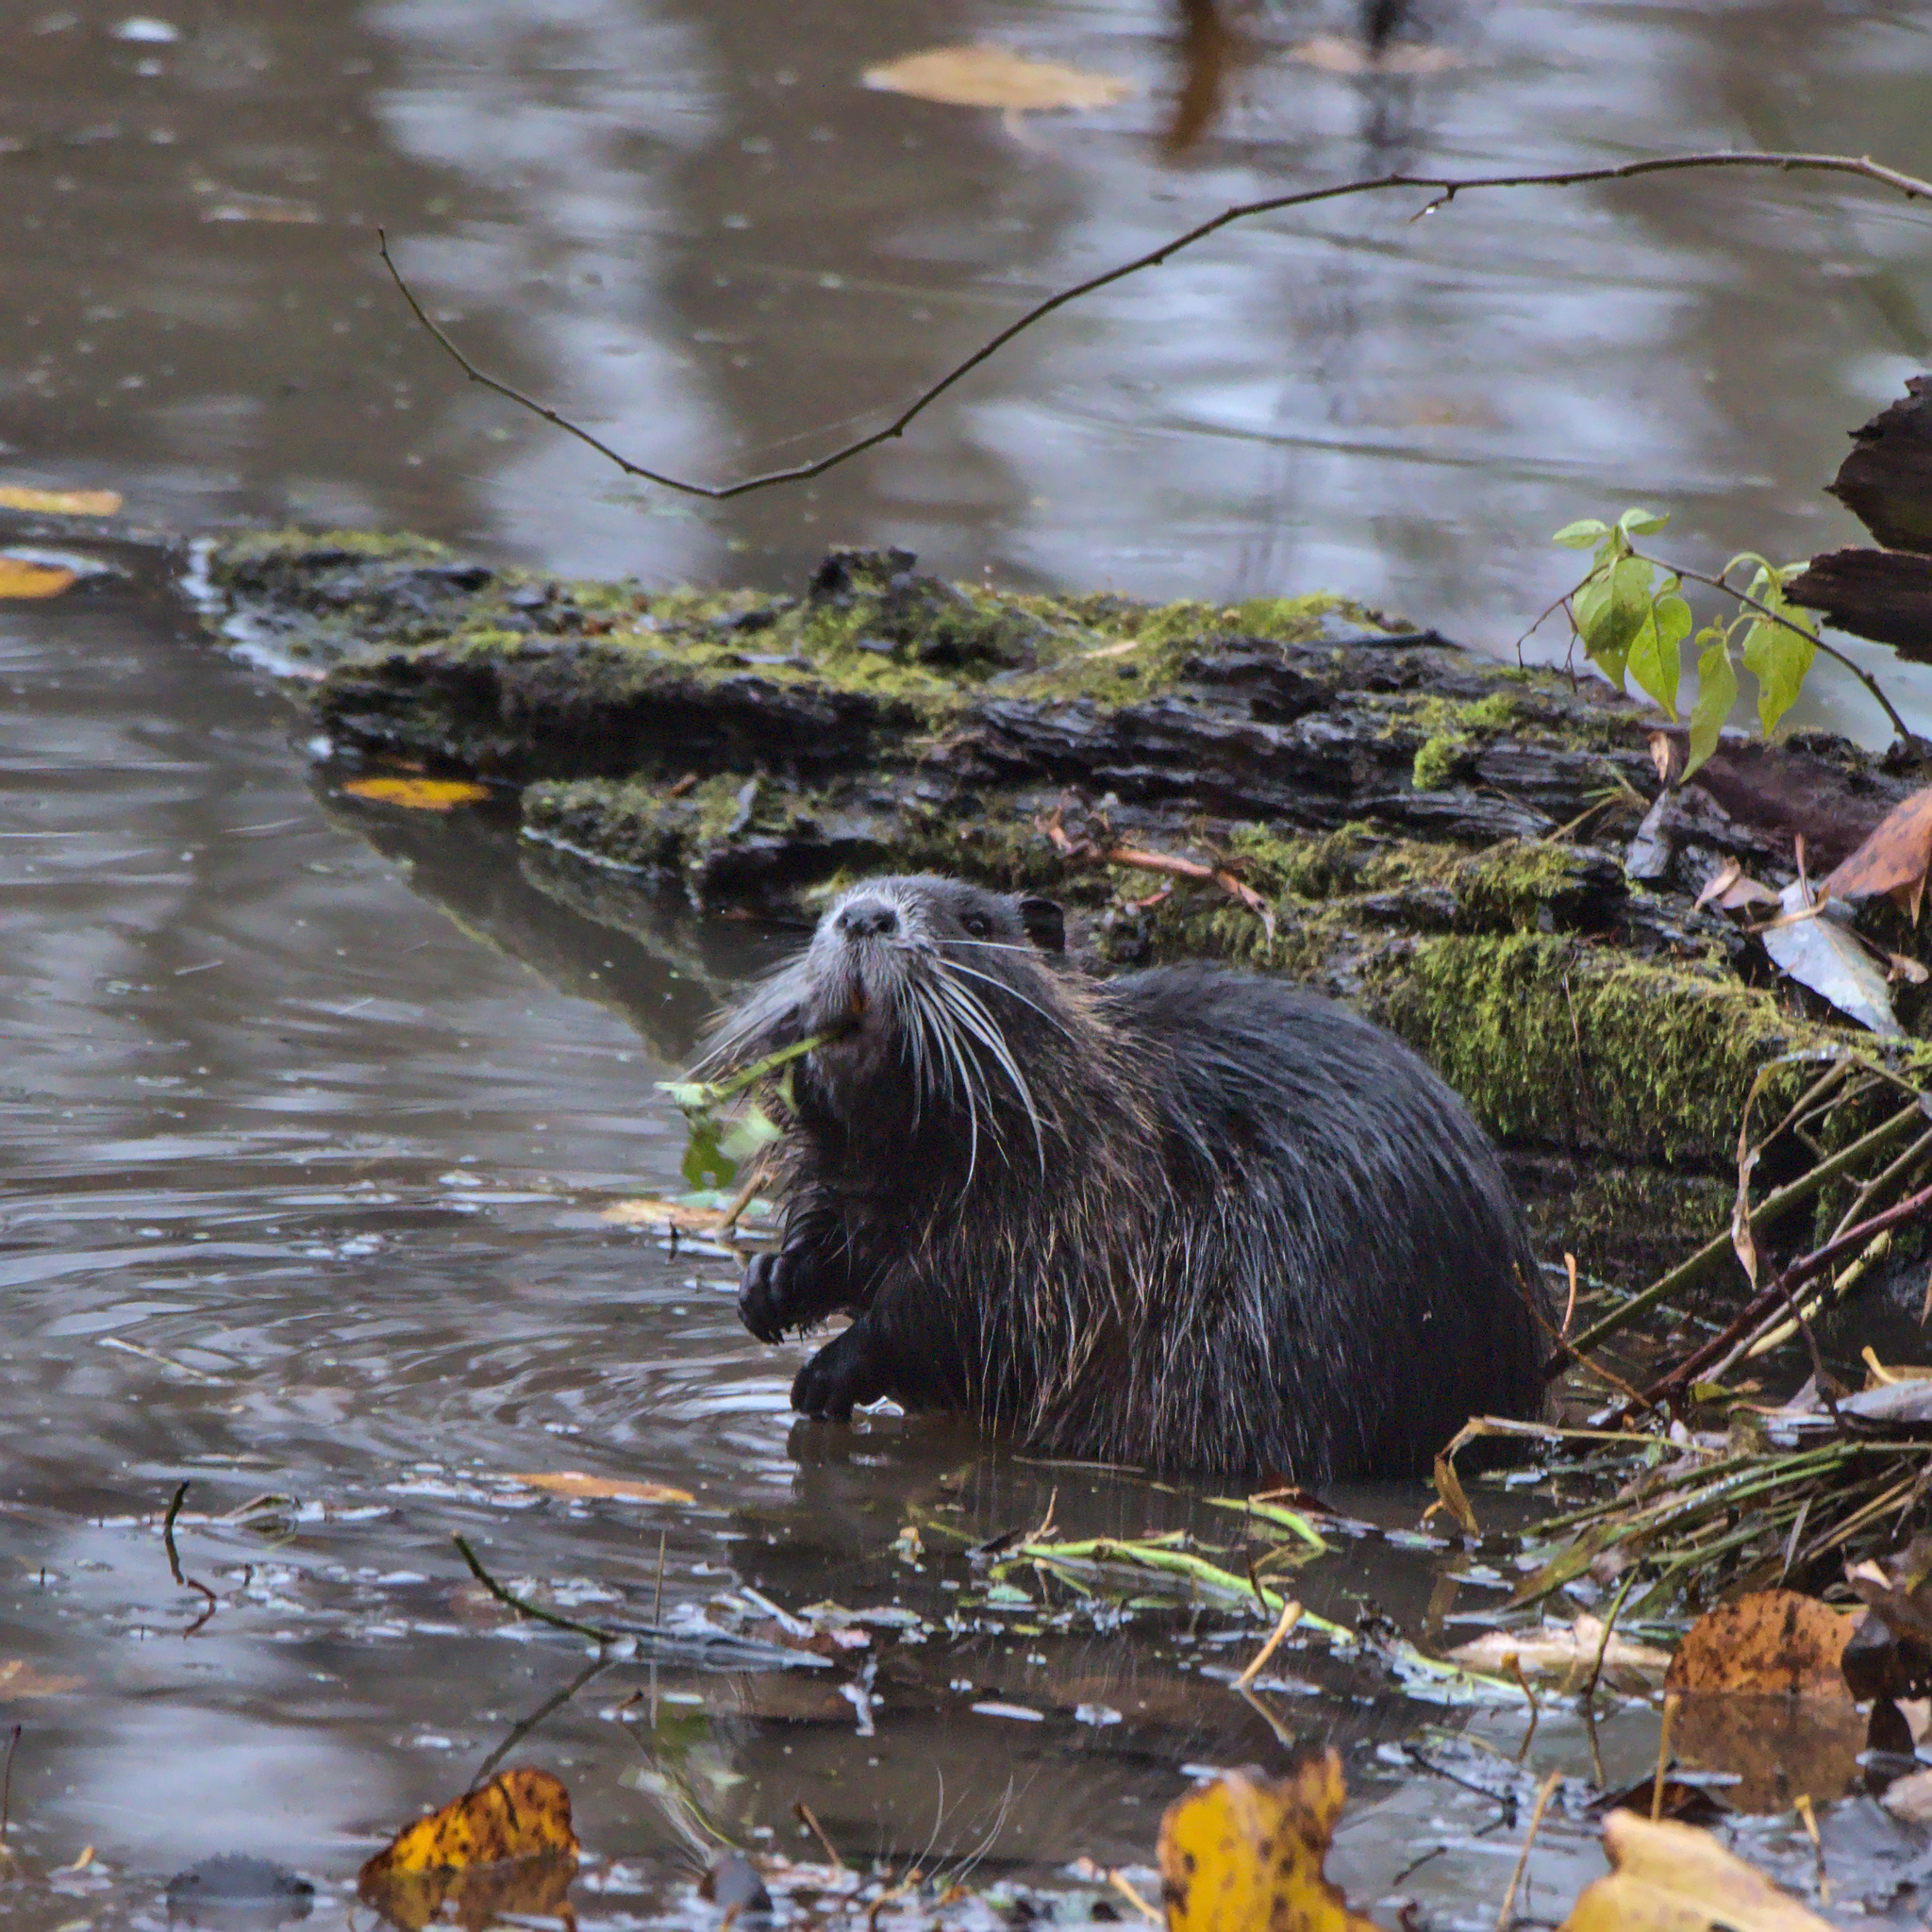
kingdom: Animalia
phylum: Chordata
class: Mammalia
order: Rodentia
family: Myocastoridae
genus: Myocastor
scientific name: Myocastor coypus
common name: Coypu
